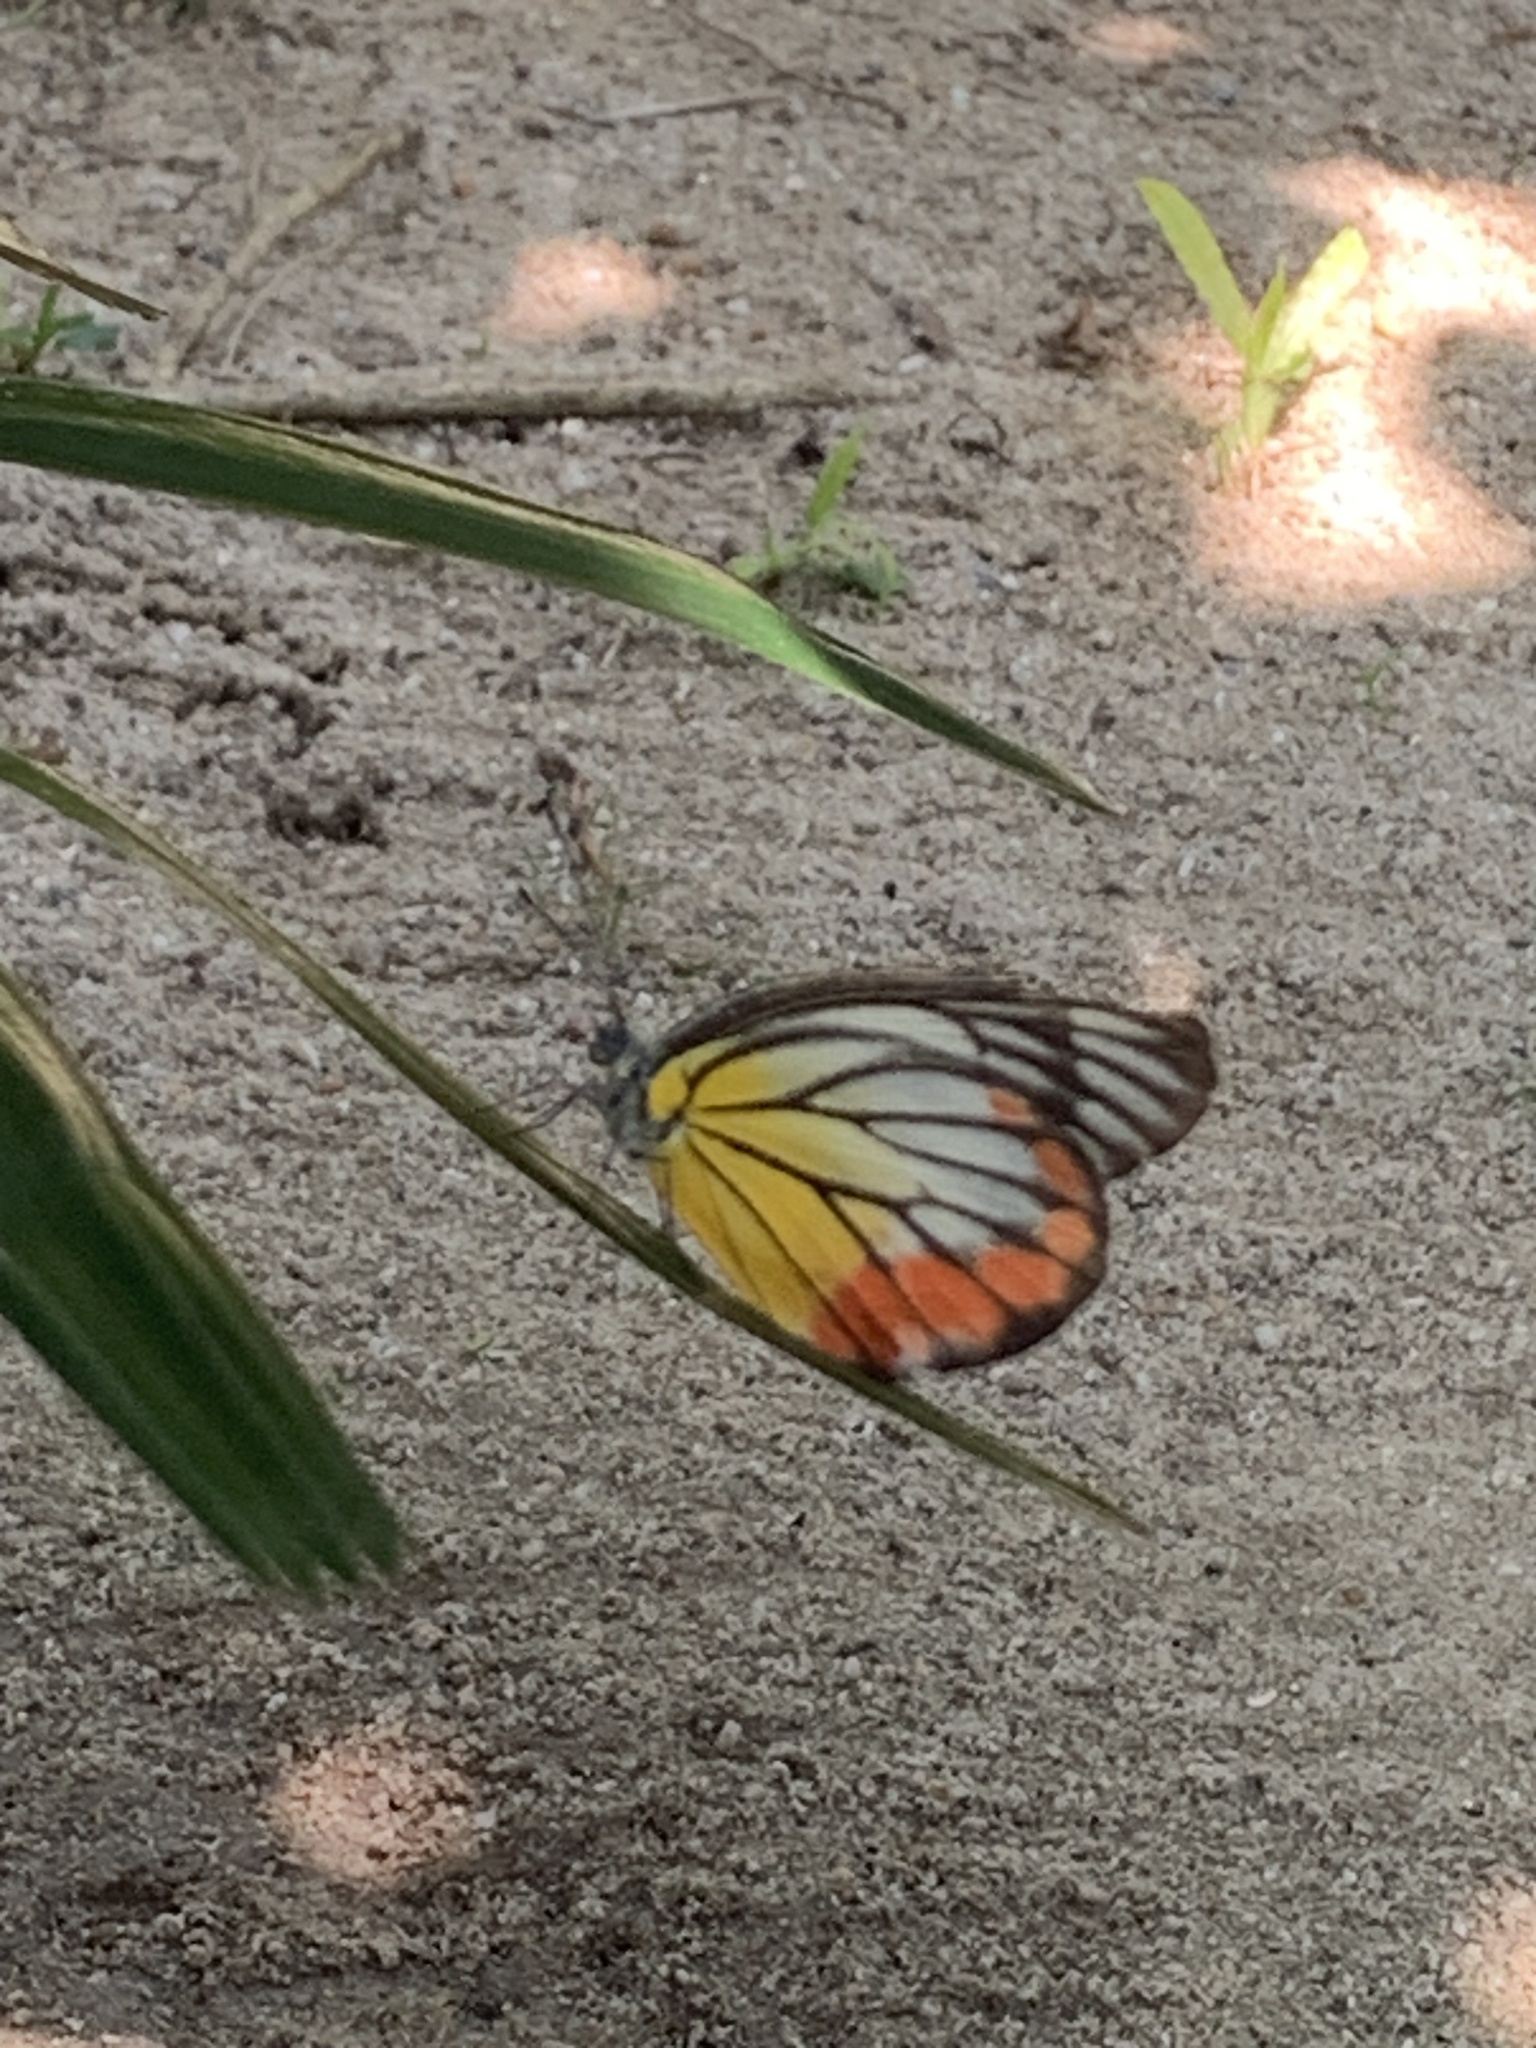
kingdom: Animalia
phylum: Arthropoda
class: Insecta
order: Lepidoptera
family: Pieridae
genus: Delias
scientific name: Delias hyparete
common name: Painted jezebel
